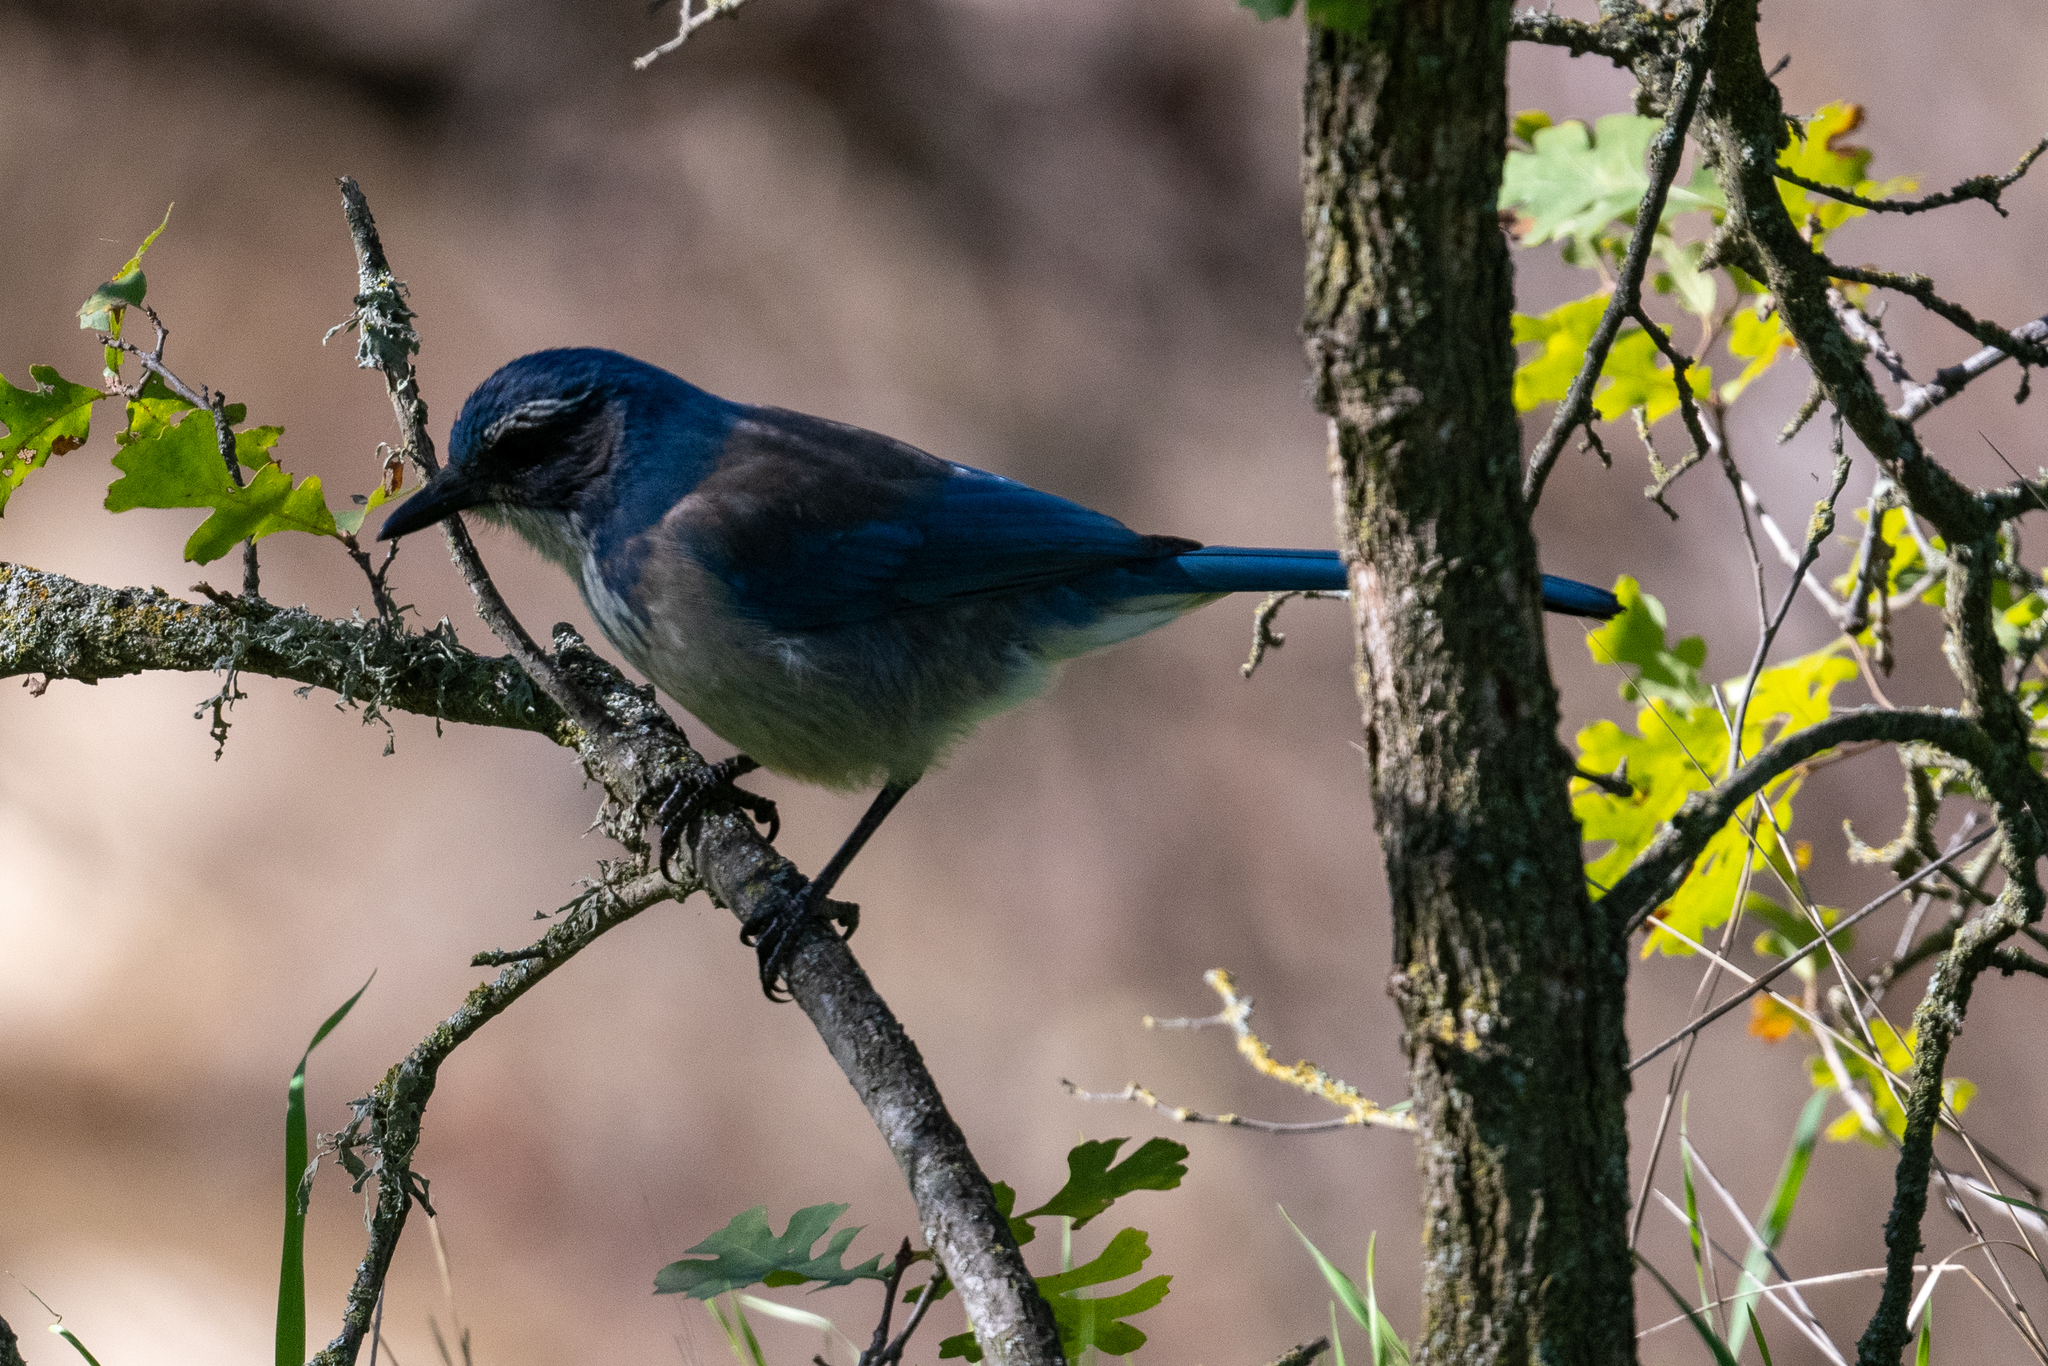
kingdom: Animalia
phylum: Chordata
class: Aves
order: Passeriformes
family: Corvidae
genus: Aphelocoma
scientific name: Aphelocoma californica
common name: California scrub-jay
